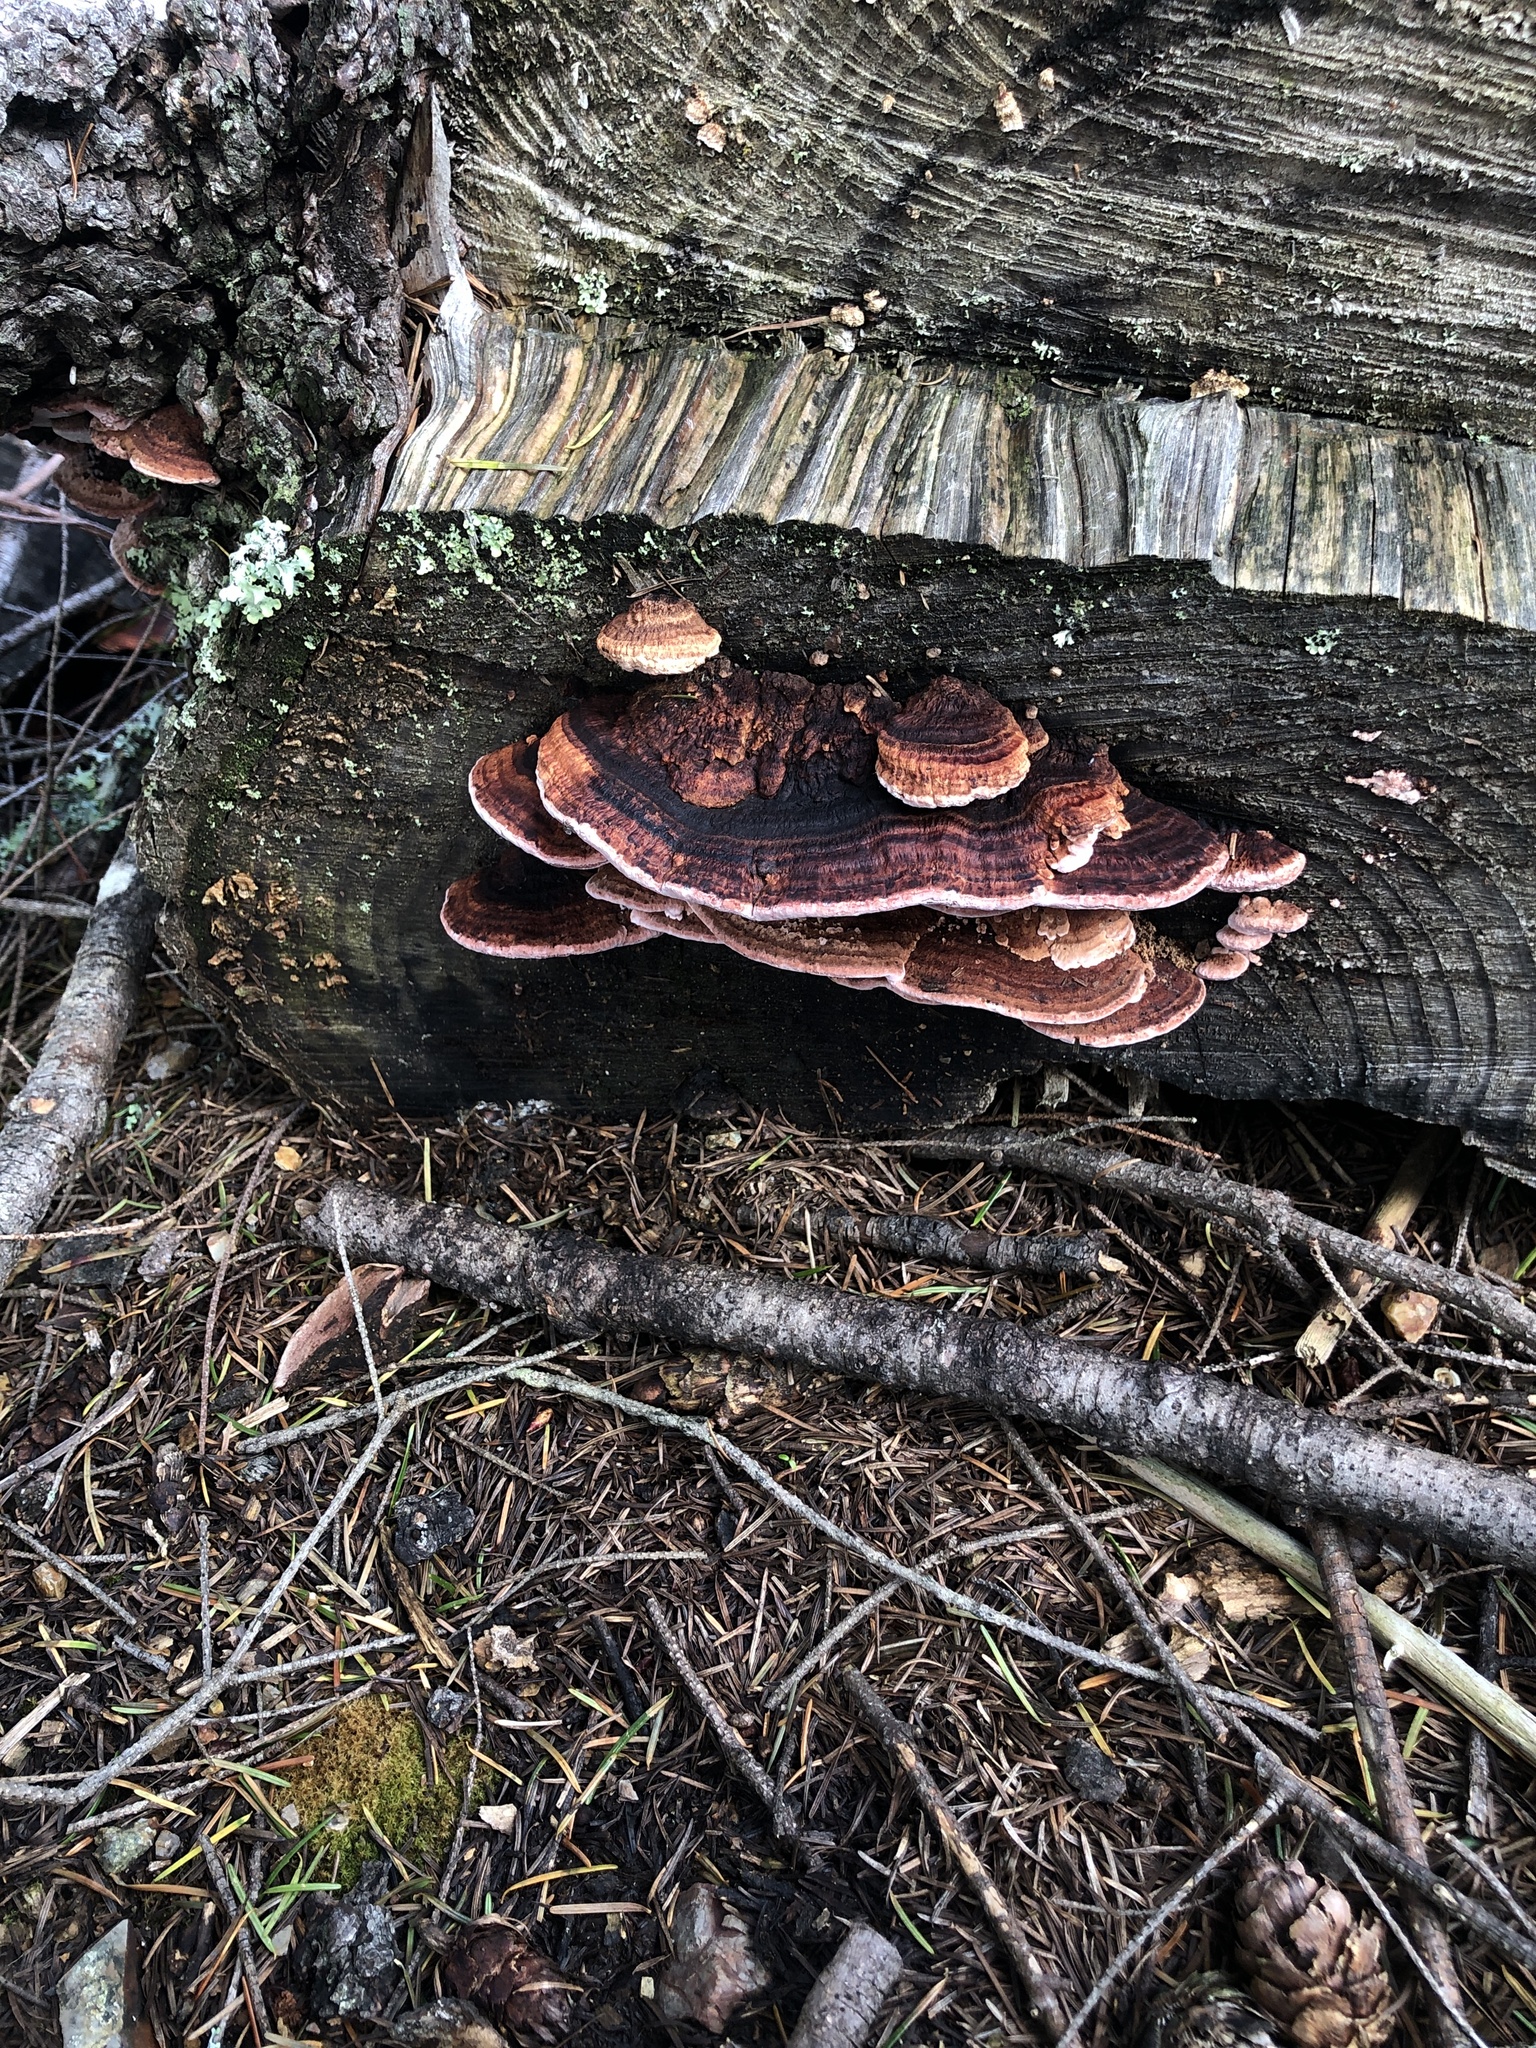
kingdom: Fungi
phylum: Basidiomycota
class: Agaricomycetes
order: Polyporales
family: Fomitopsidaceae
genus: Rhodofomes
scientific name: Rhodofomes cajanderi
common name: Rosy conk
